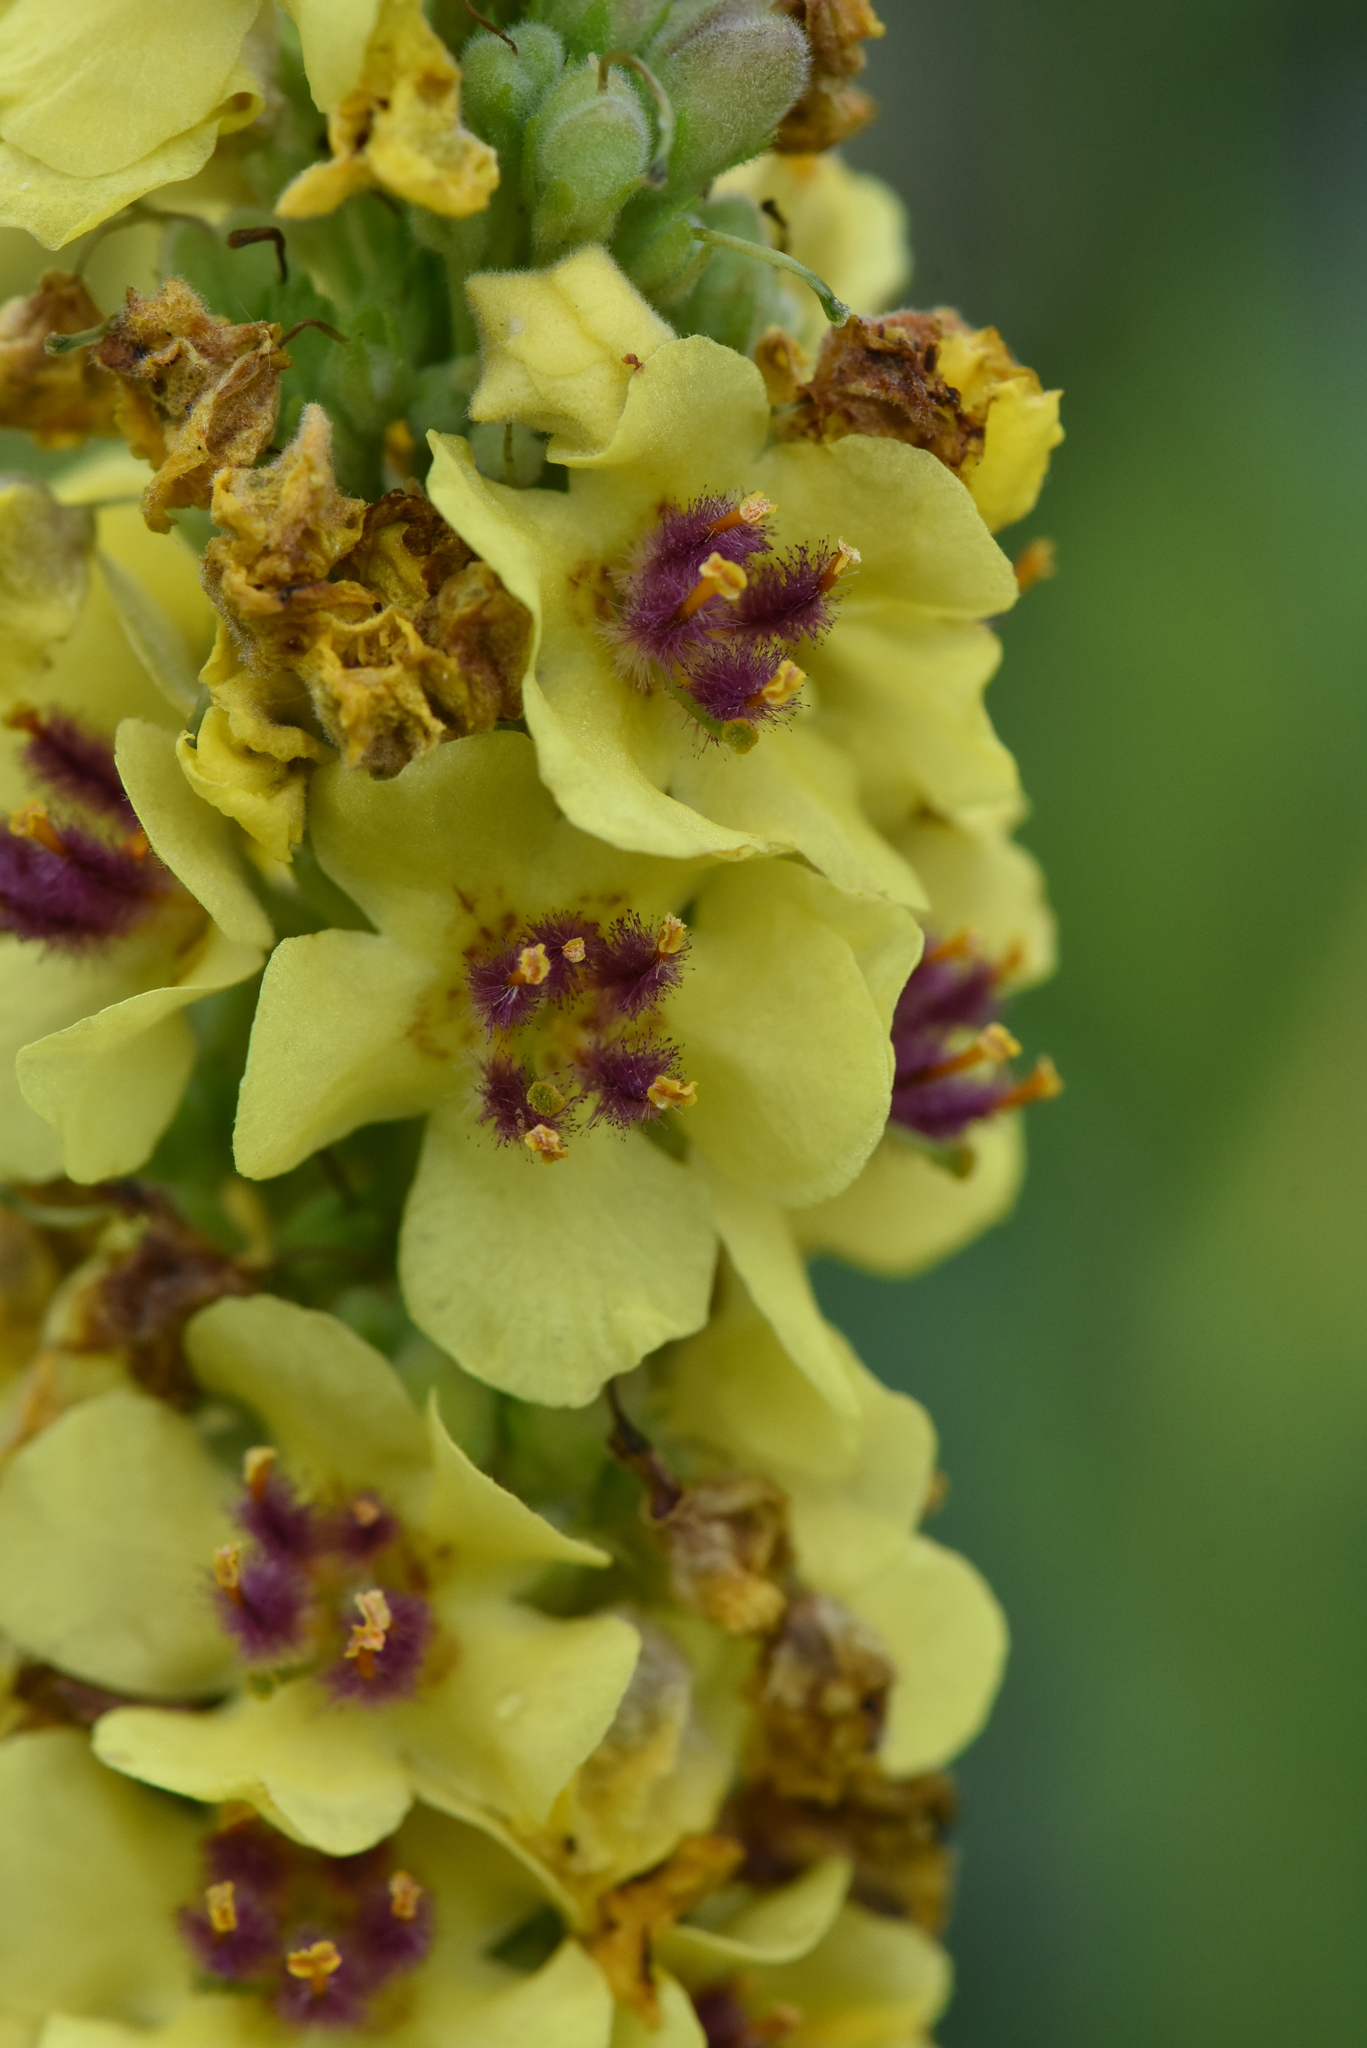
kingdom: Plantae
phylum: Tracheophyta
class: Magnoliopsida
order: Lamiales
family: Scrophulariaceae
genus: Verbascum
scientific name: Verbascum nigrum
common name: Dark mullein
